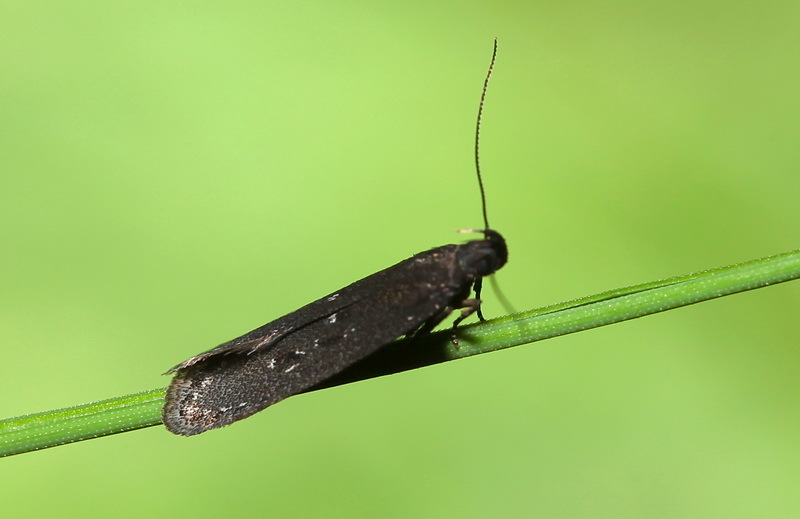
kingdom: Animalia
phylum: Arthropoda
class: Insecta
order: Lepidoptera
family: Gelechiidae
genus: Neofaculta
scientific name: Neofaculta infernella
